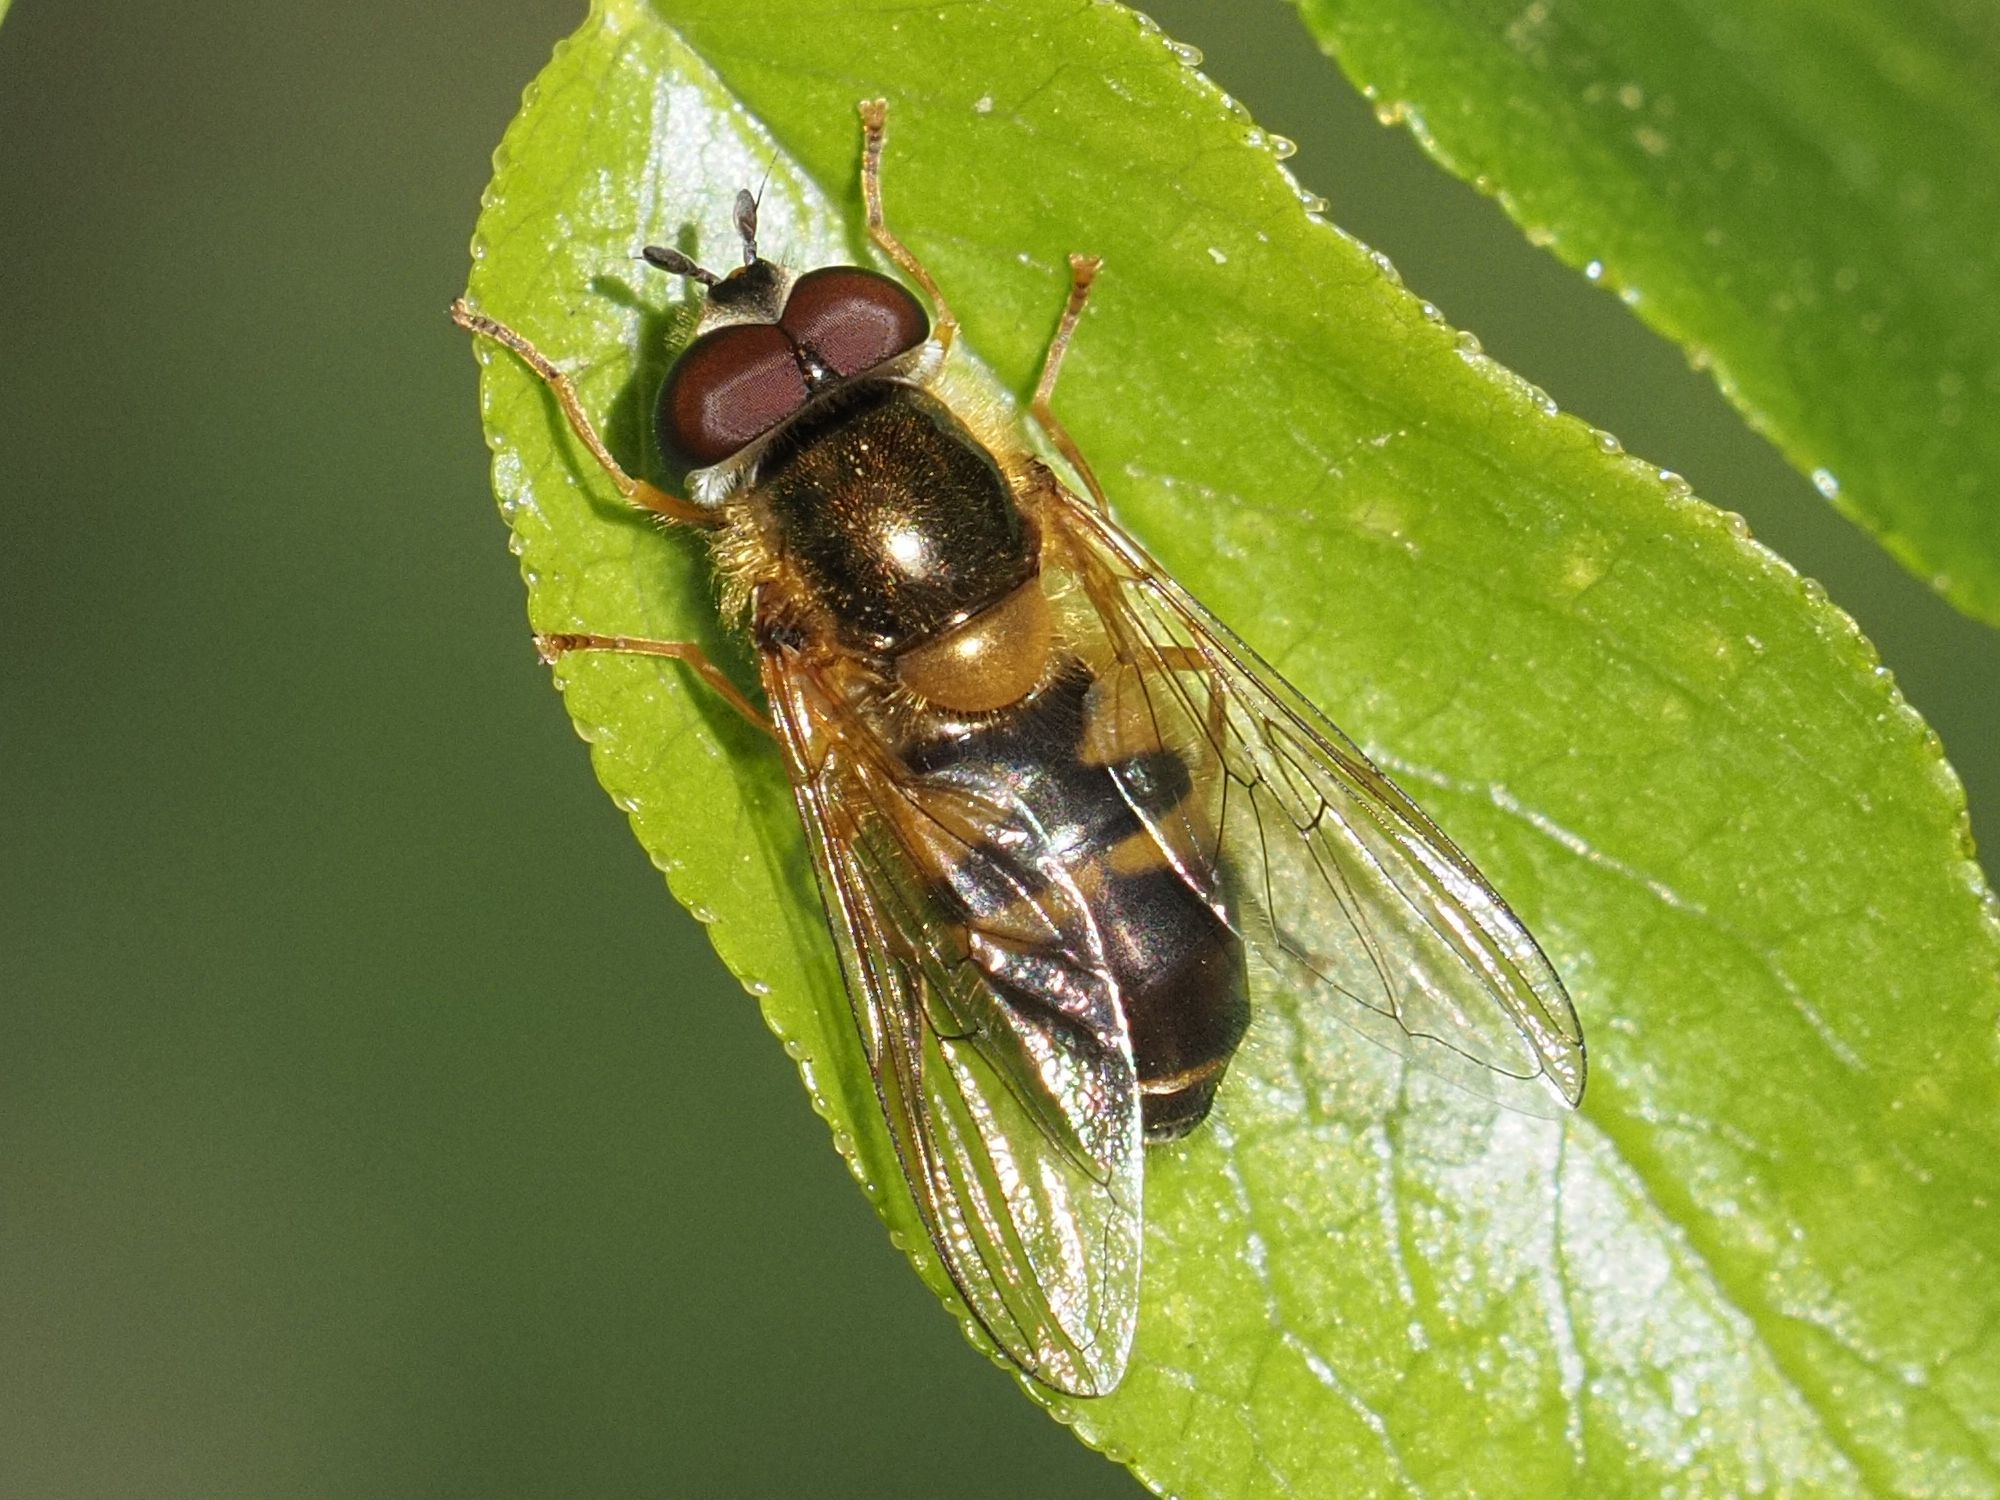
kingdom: Animalia
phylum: Arthropoda
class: Insecta
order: Diptera
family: Syrphidae
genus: Epistrophe
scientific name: Epistrophe eligans
